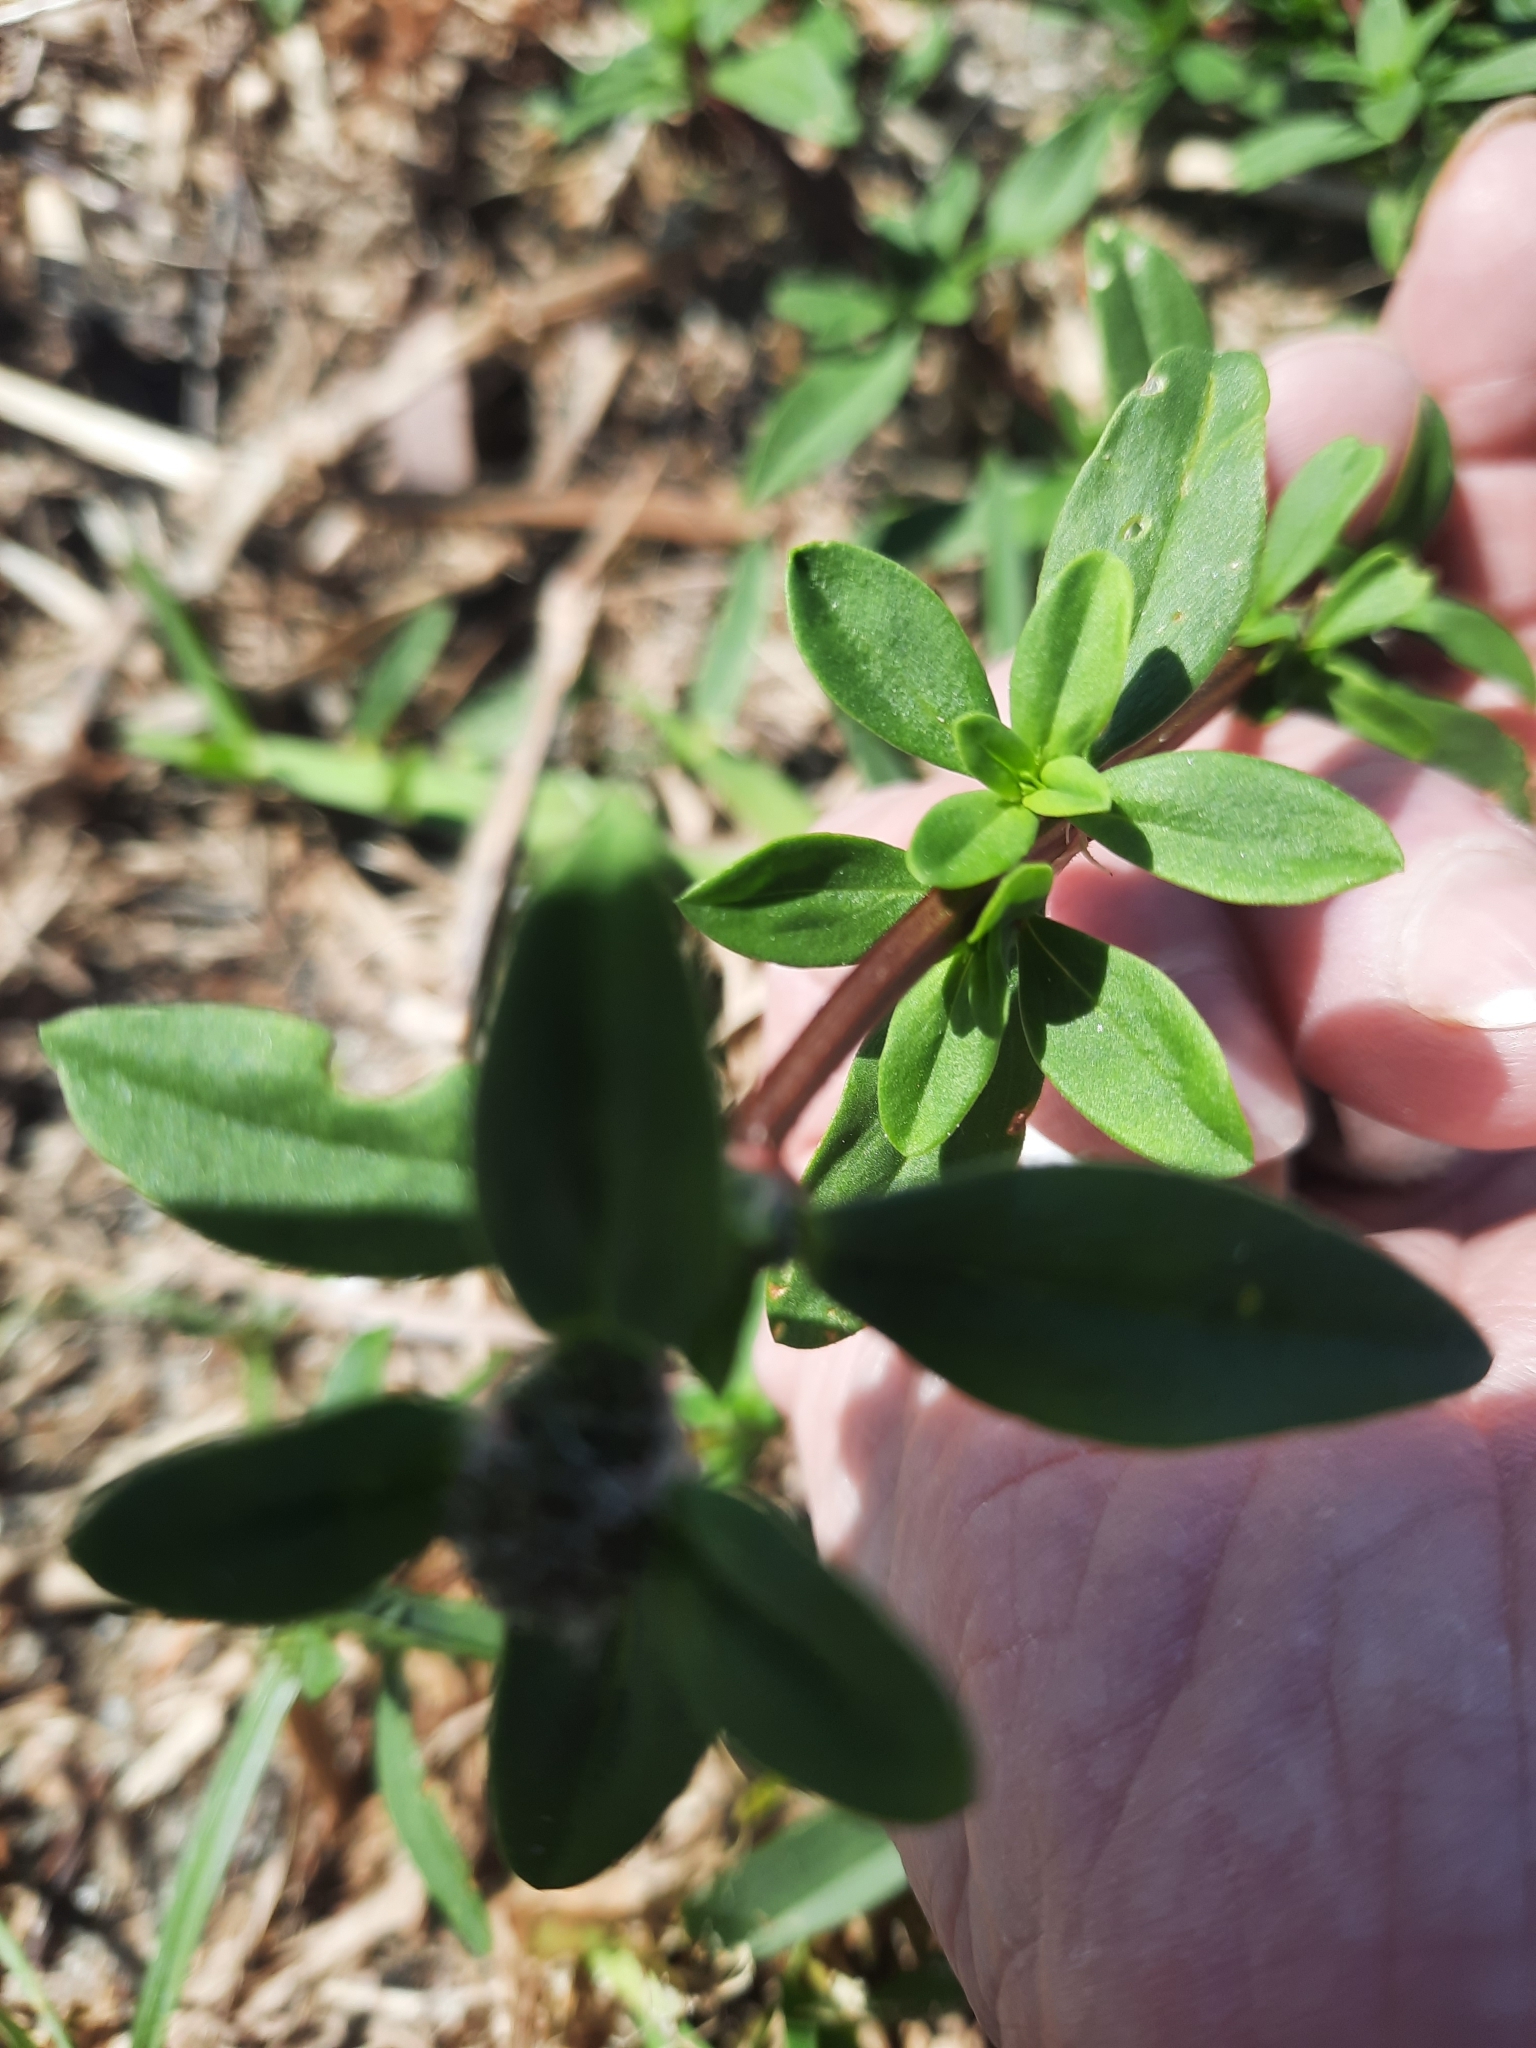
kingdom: Plantae
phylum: Tracheophyta
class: Magnoliopsida
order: Gentianales
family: Rubiaceae
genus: Spermacoce
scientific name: Spermacoce verticillata
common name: Shrubby false buttonweed
